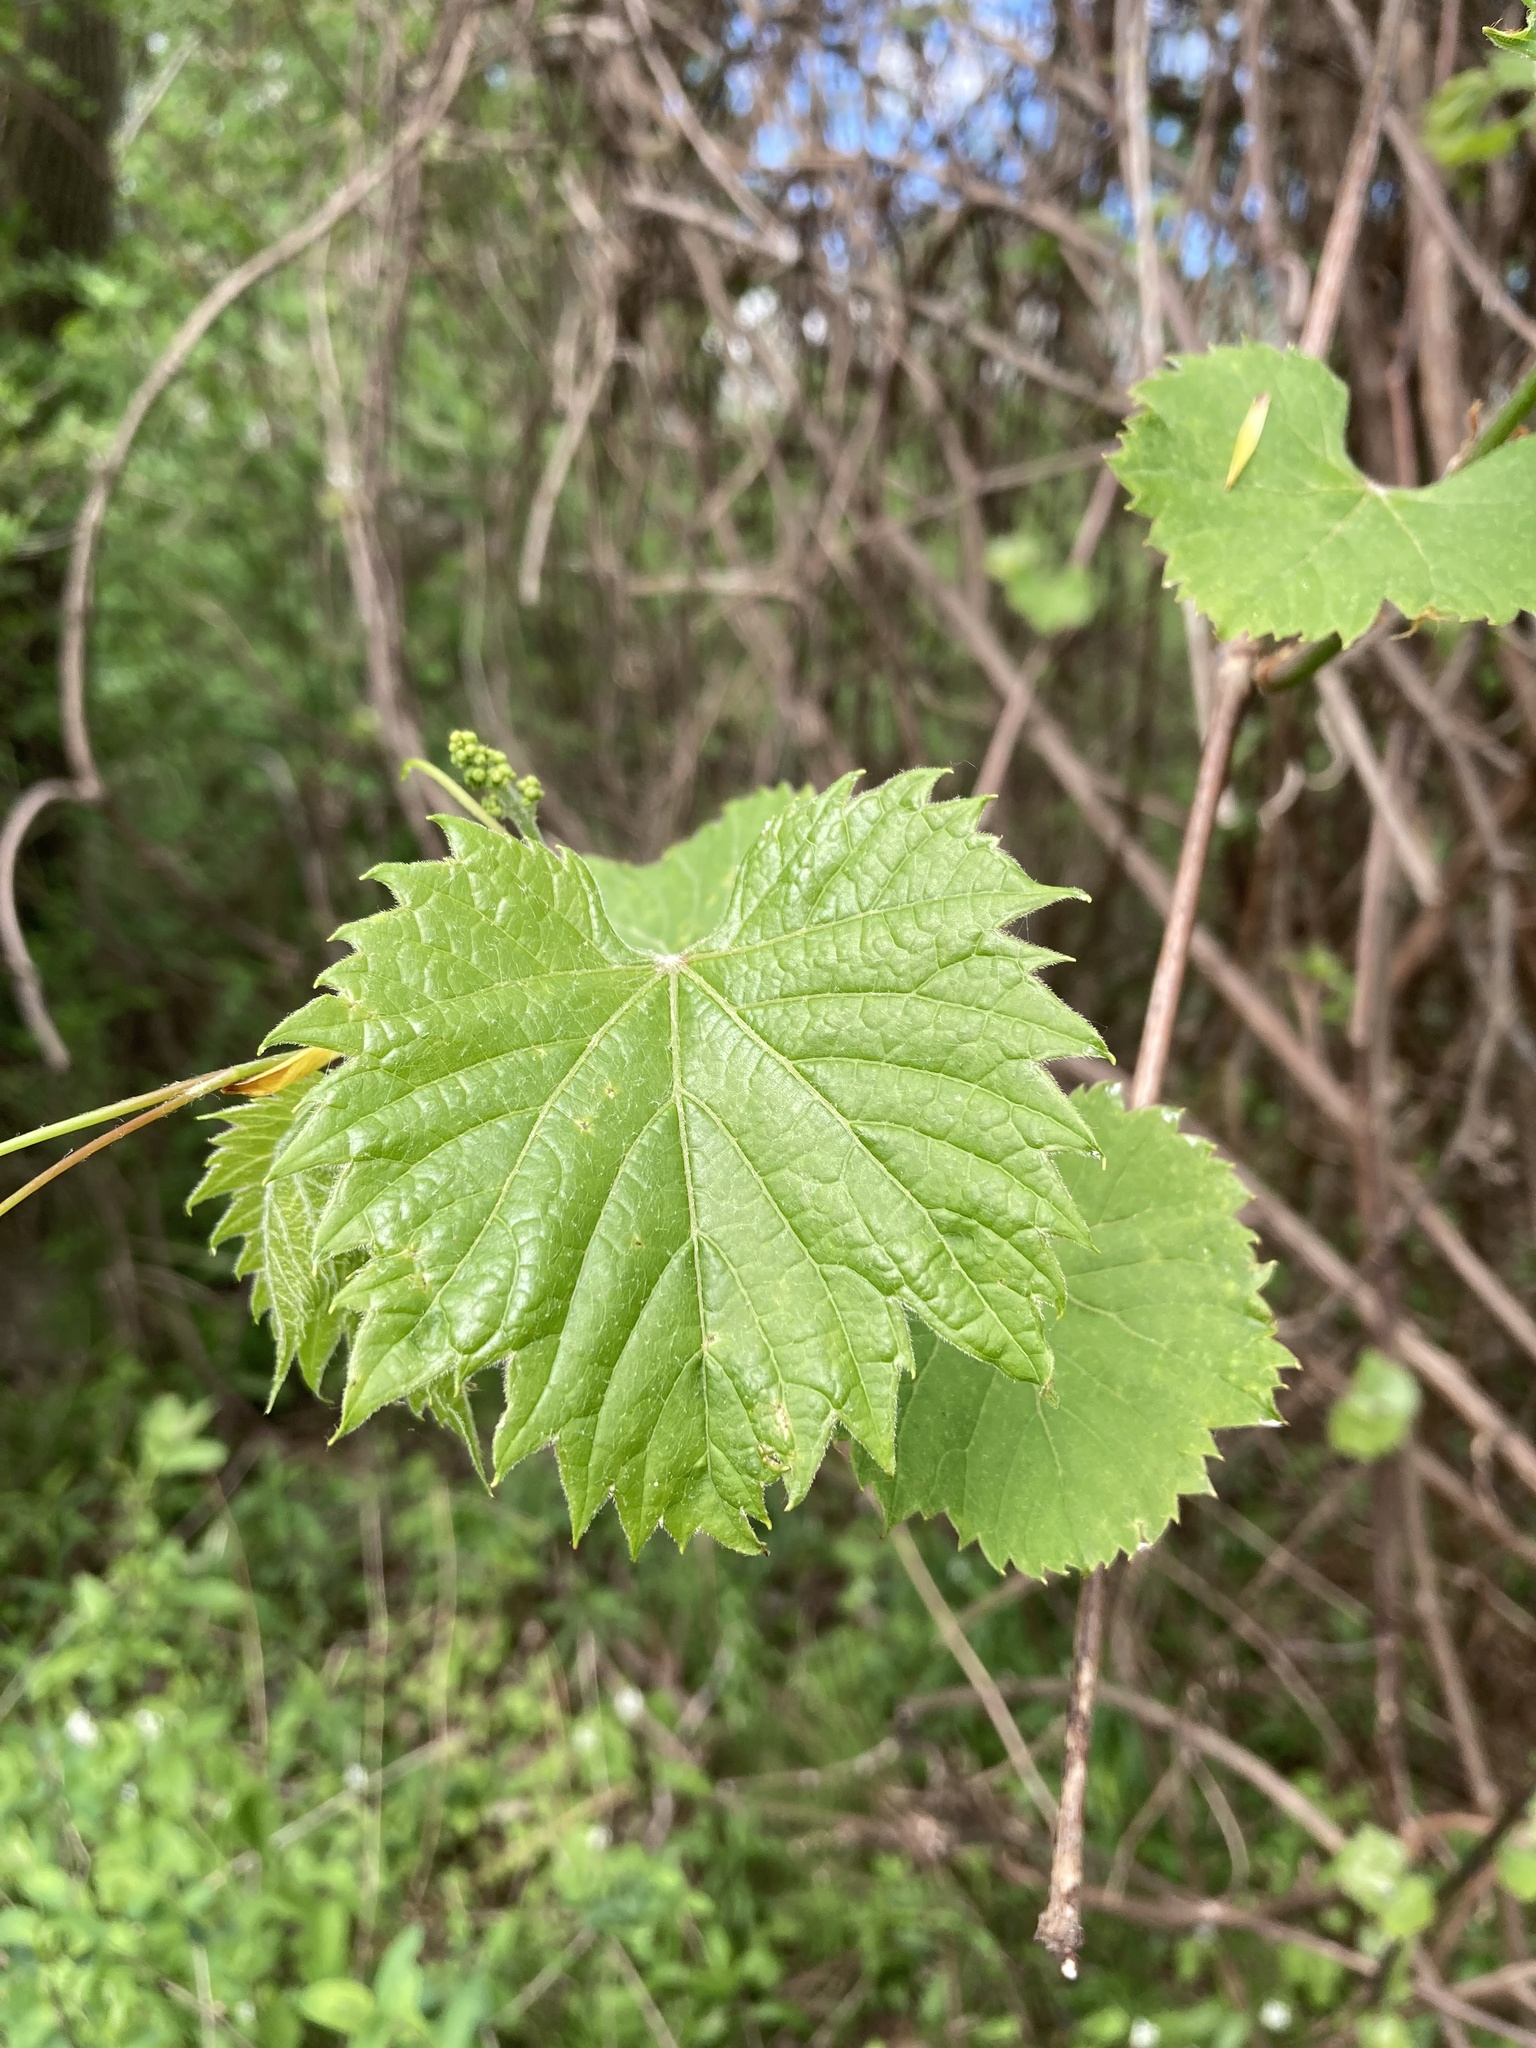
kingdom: Plantae
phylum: Tracheophyta
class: Magnoliopsida
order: Vitales
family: Vitaceae
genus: Vitis
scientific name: Vitis riparia
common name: Frost grape
